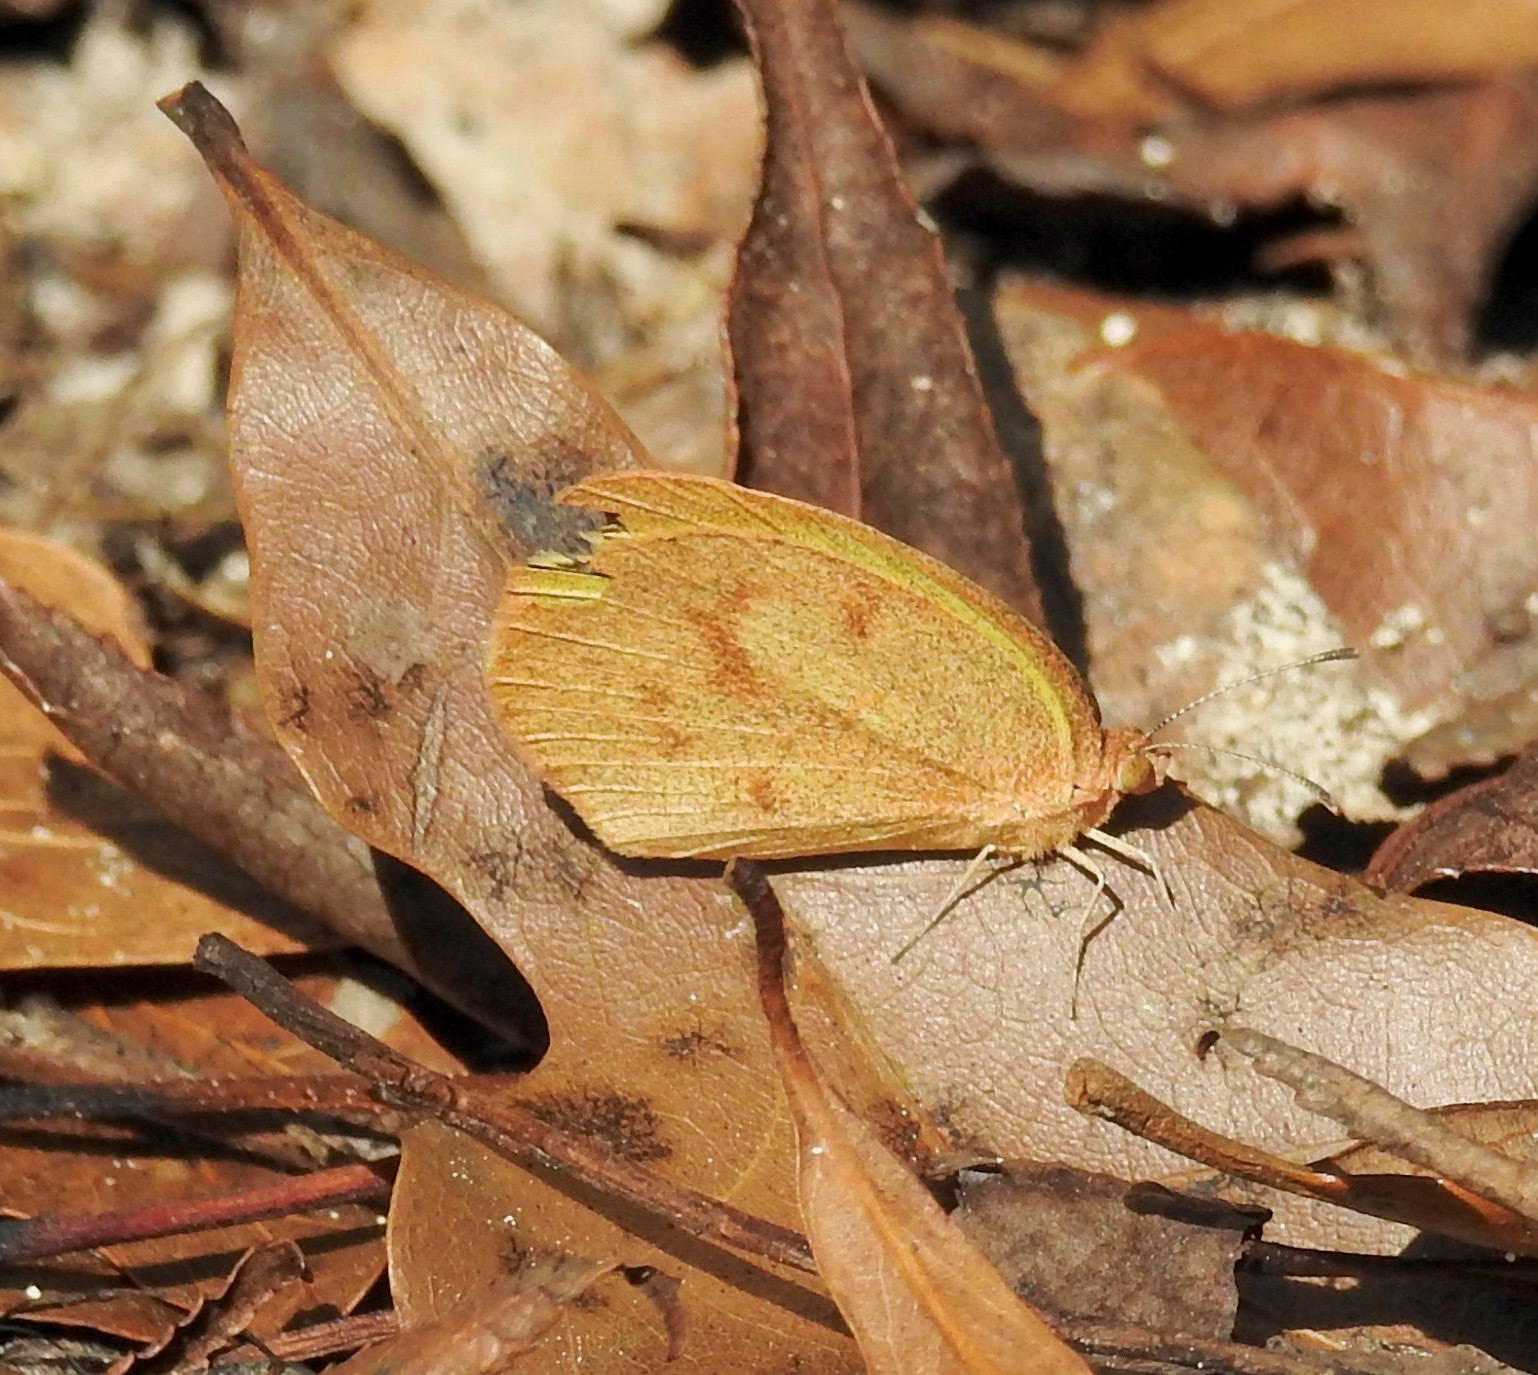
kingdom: Animalia
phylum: Arthropoda
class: Insecta
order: Lepidoptera
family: Pieridae
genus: Eurema
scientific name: Eurema daira
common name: Barred sulphur
